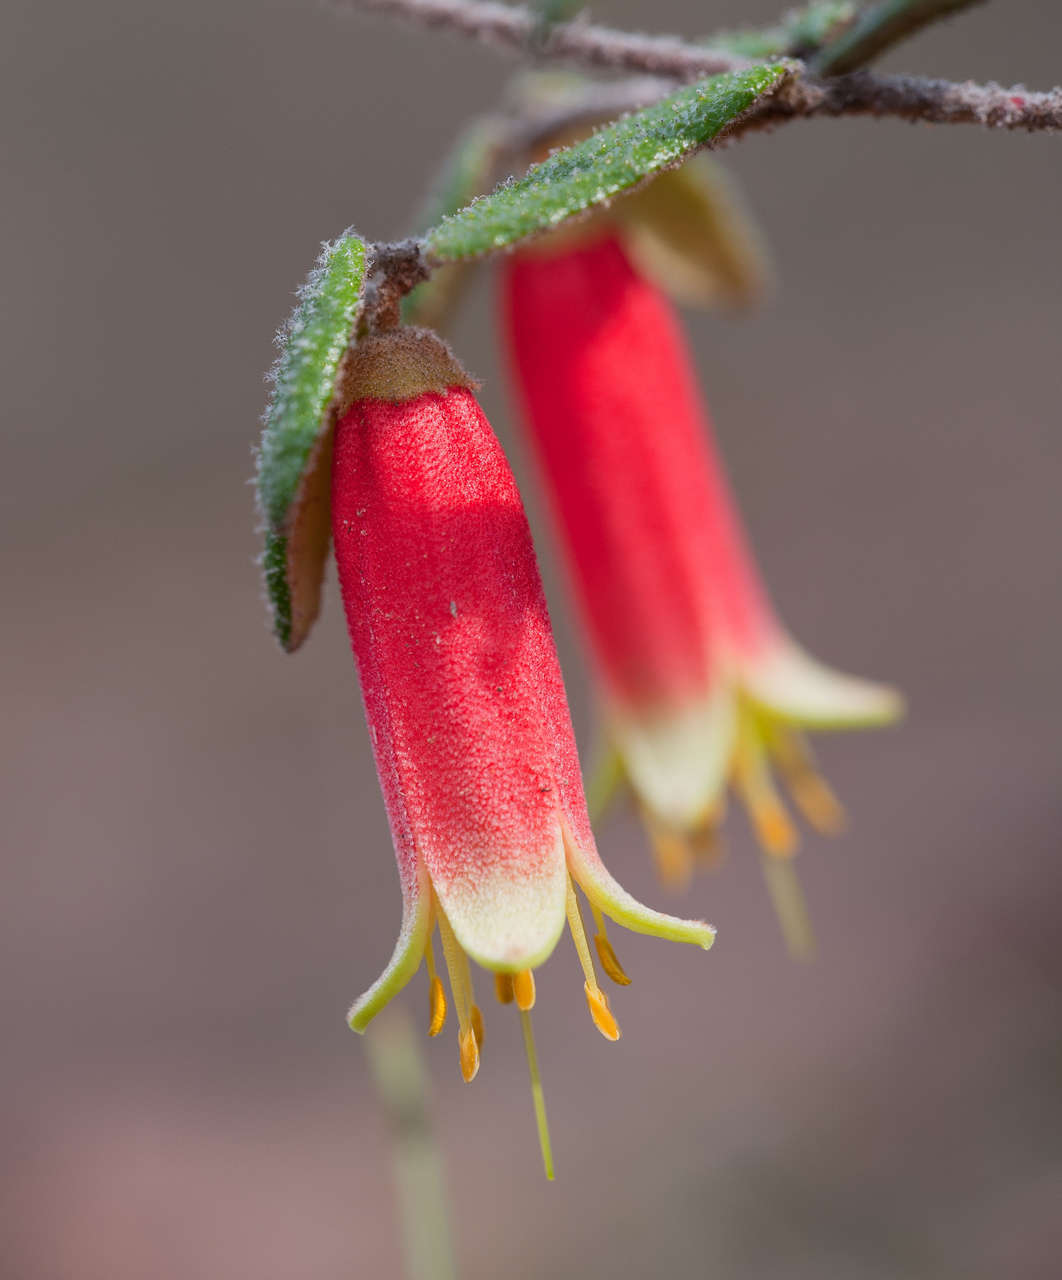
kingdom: Plantae
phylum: Tracheophyta
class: Magnoliopsida
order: Sapindales
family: Rutaceae
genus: Correa
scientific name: Correa reflexa
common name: Common correa
